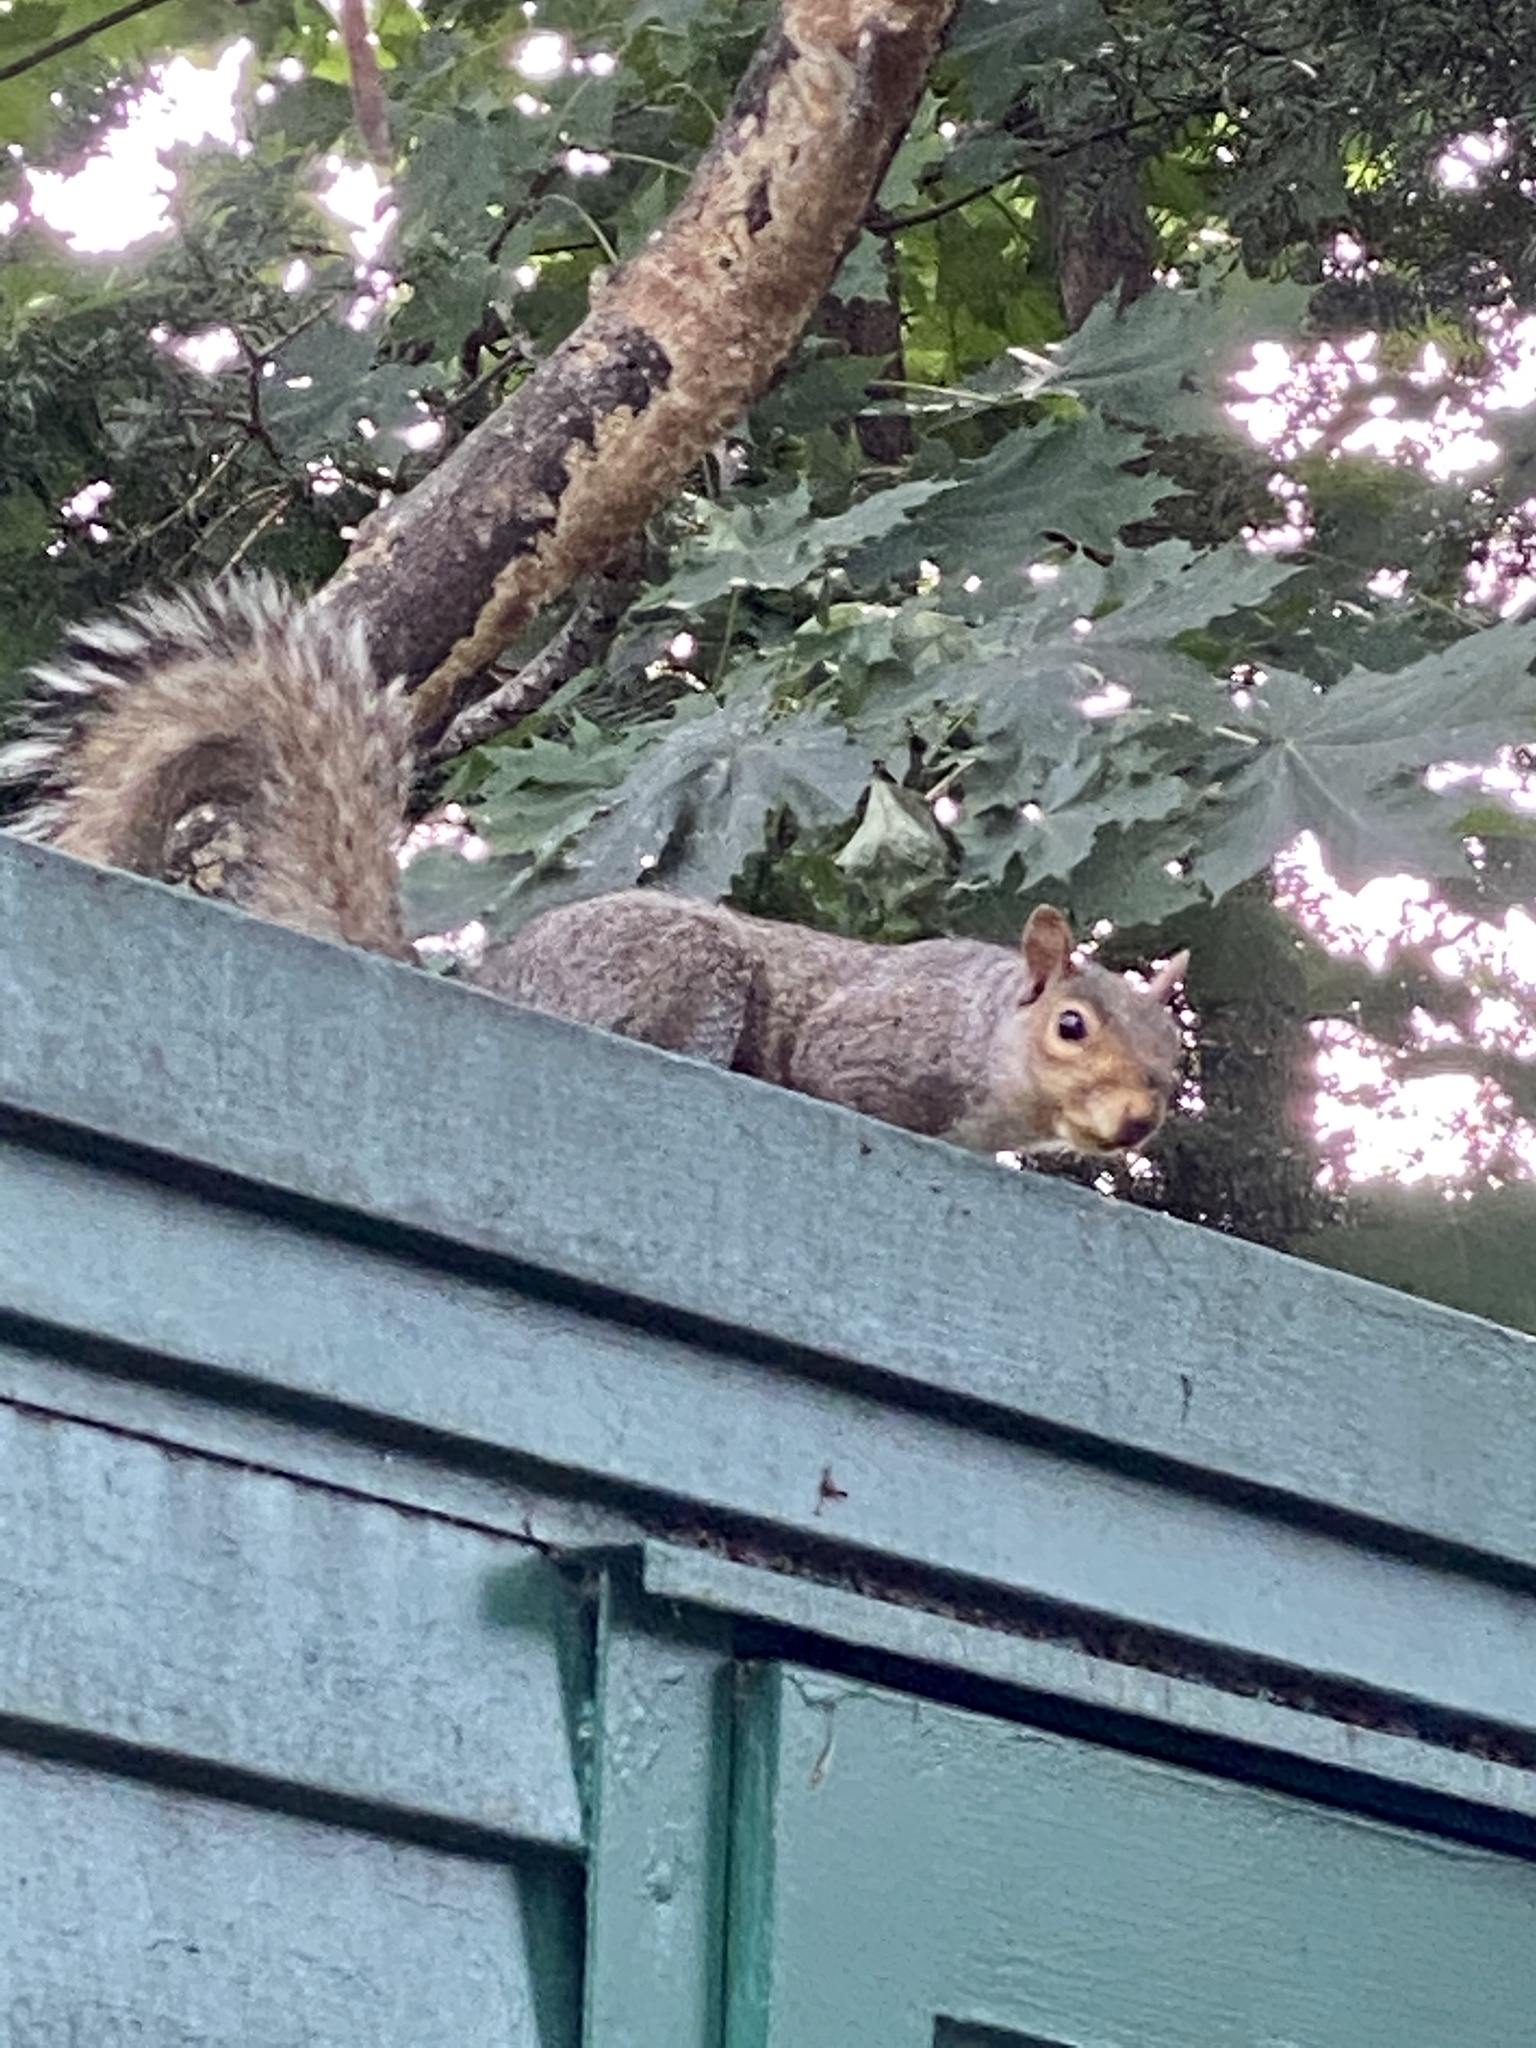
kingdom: Animalia
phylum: Chordata
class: Mammalia
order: Rodentia
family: Sciuridae
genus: Sciurus
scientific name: Sciurus carolinensis
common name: Eastern gray squirrel
